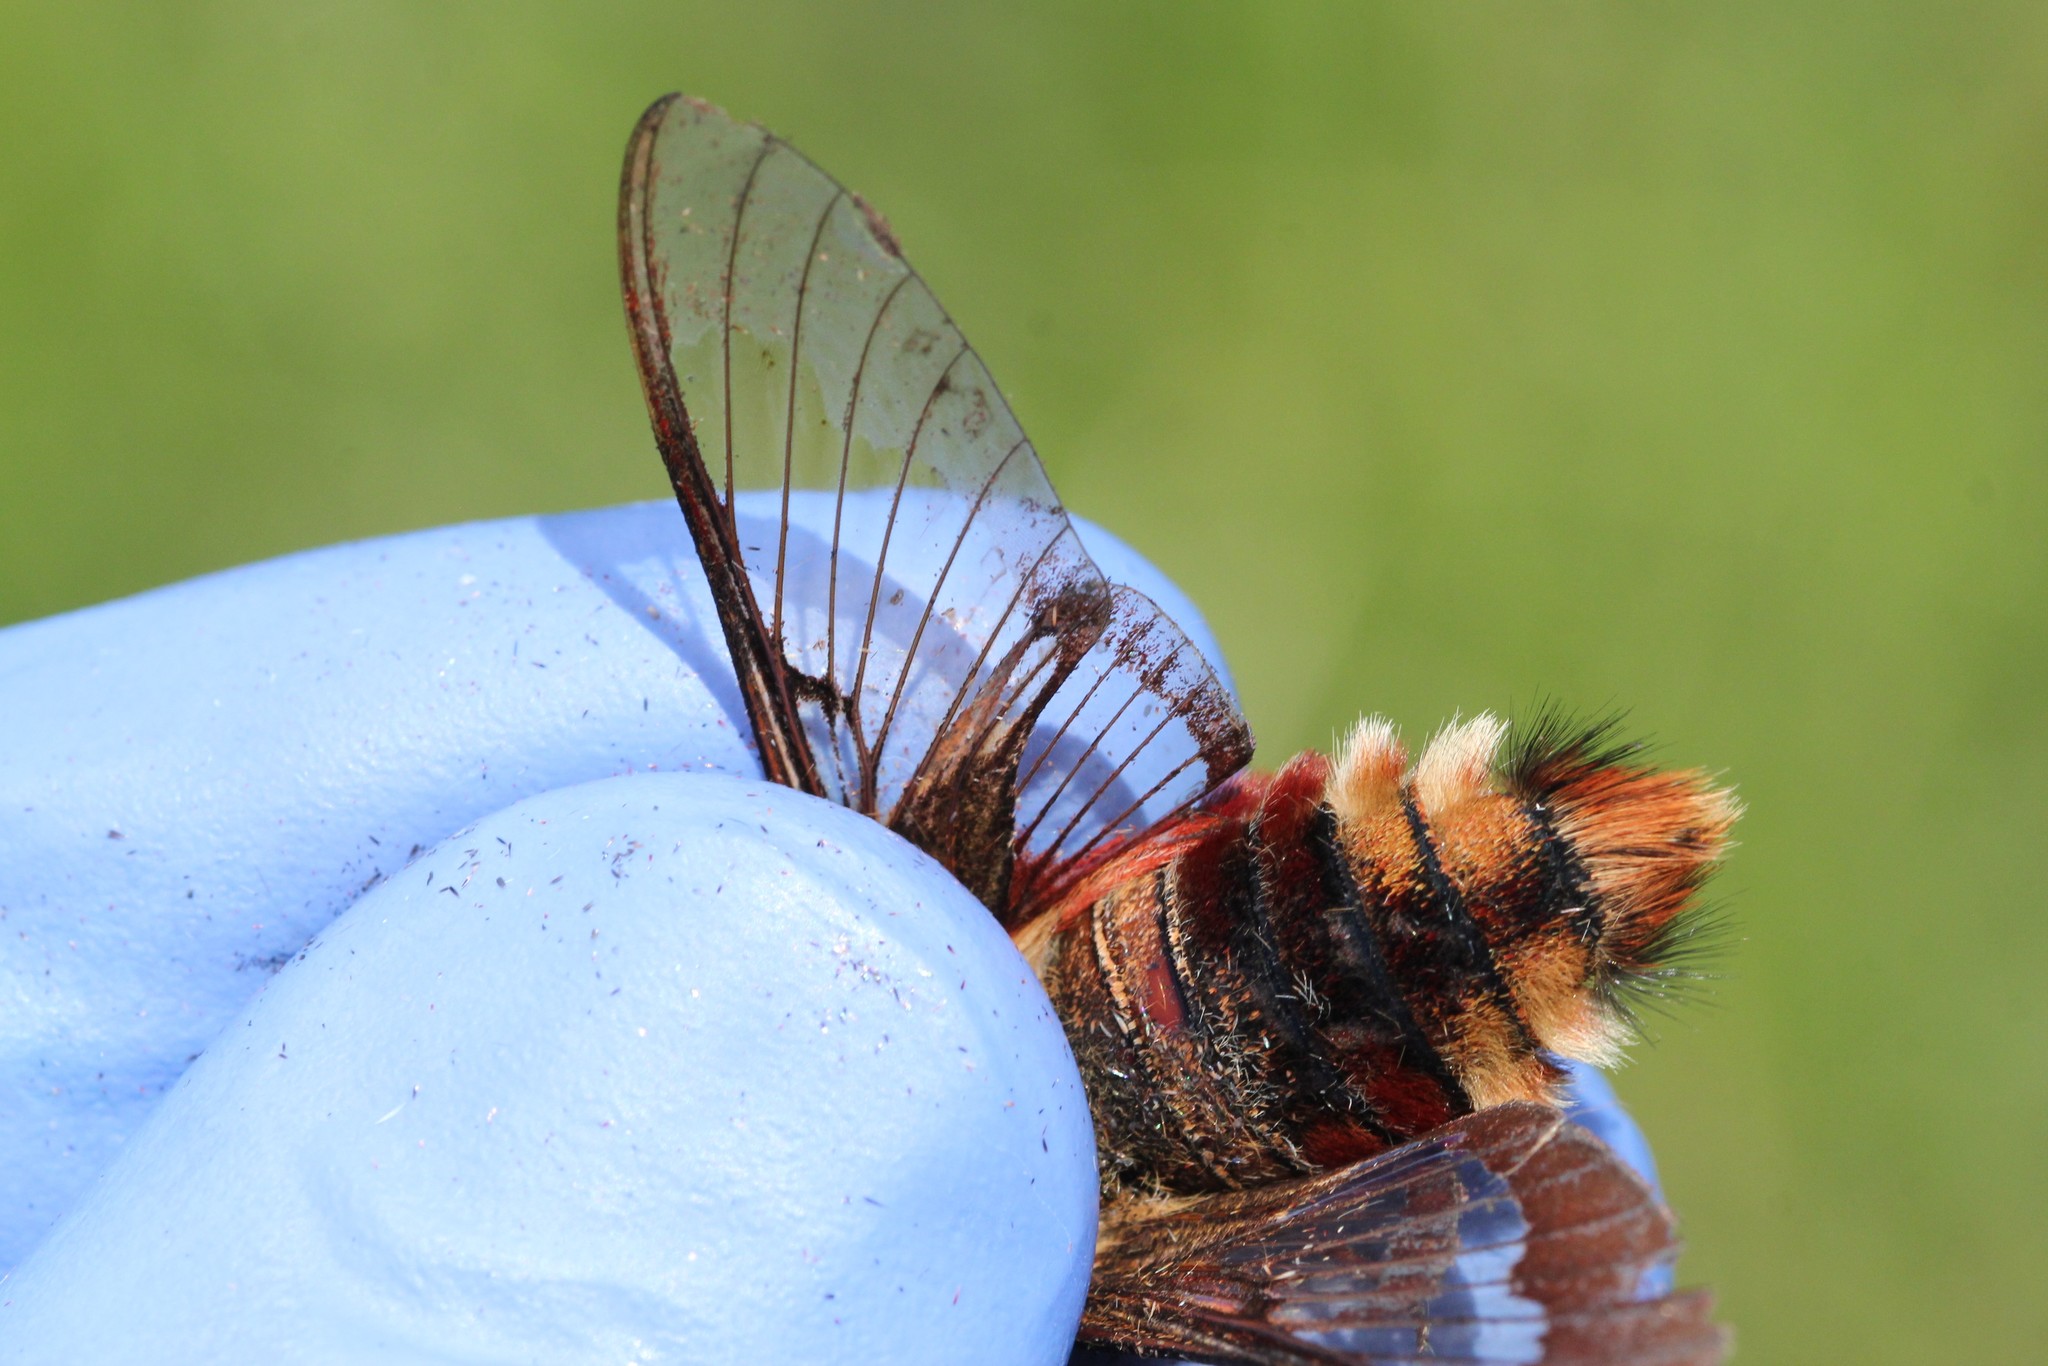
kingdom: Animalia
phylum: Arthropoda
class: Insecta
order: Lepidoptera
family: Sphingidae
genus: Hemaris
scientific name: Hemaris thysbe
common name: Common clear-wing
